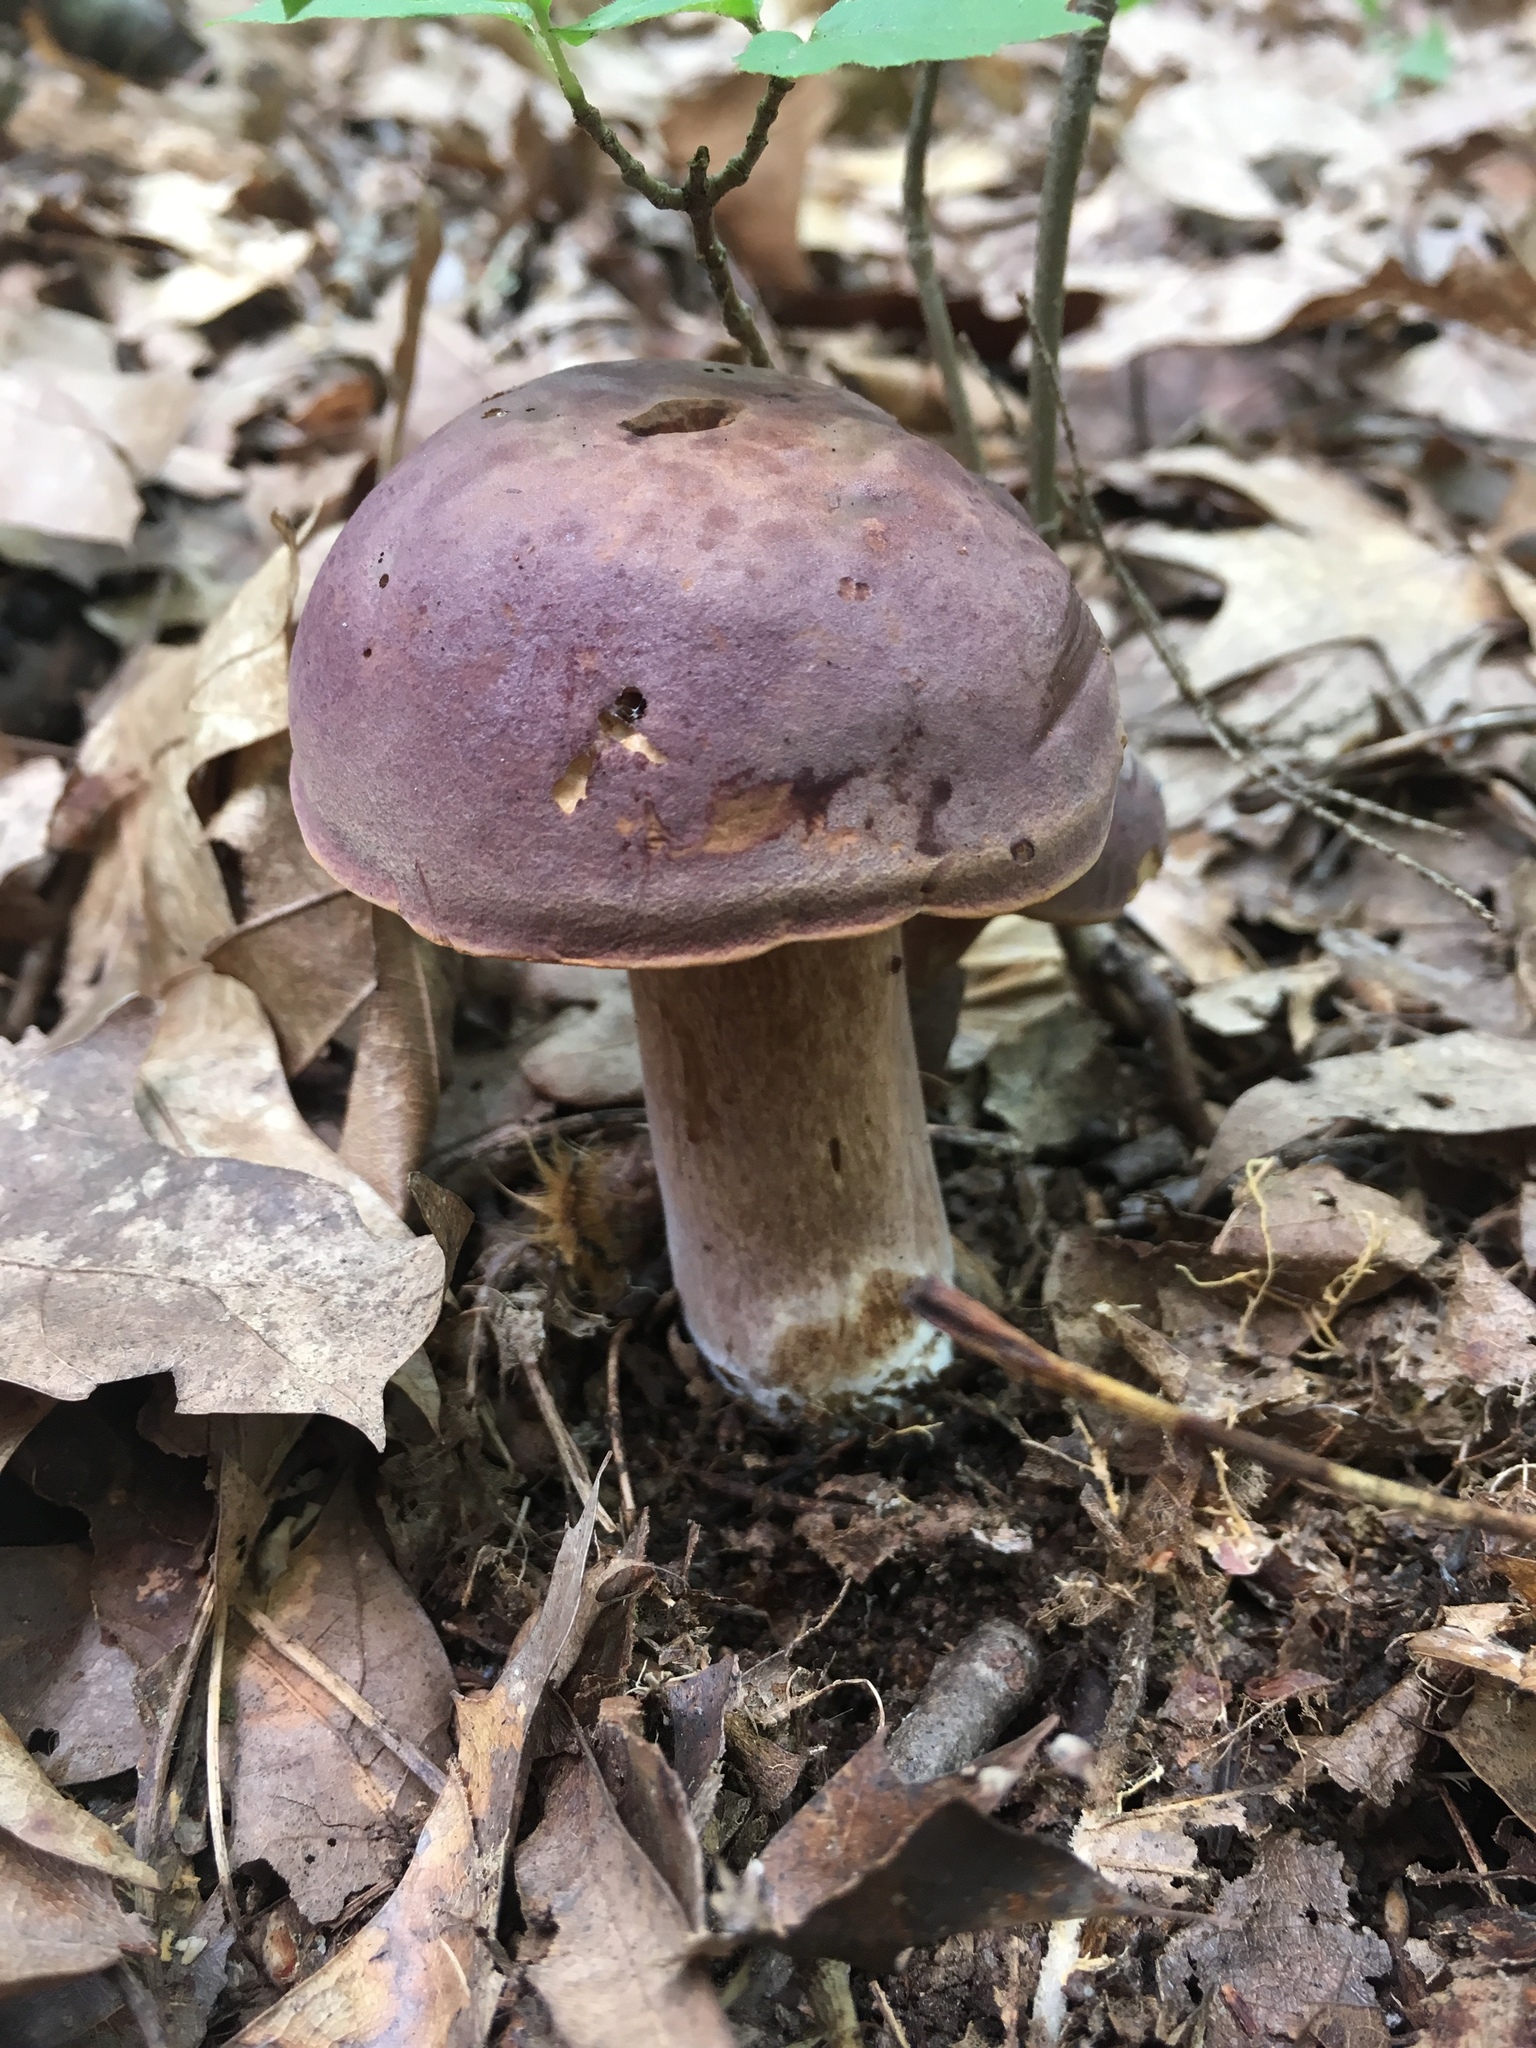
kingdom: Fungi
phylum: Basidiomycota
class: Agaricomycetes
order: Boletales
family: Boletaceae
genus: Tylopilus
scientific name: Tylopilus badiceps
